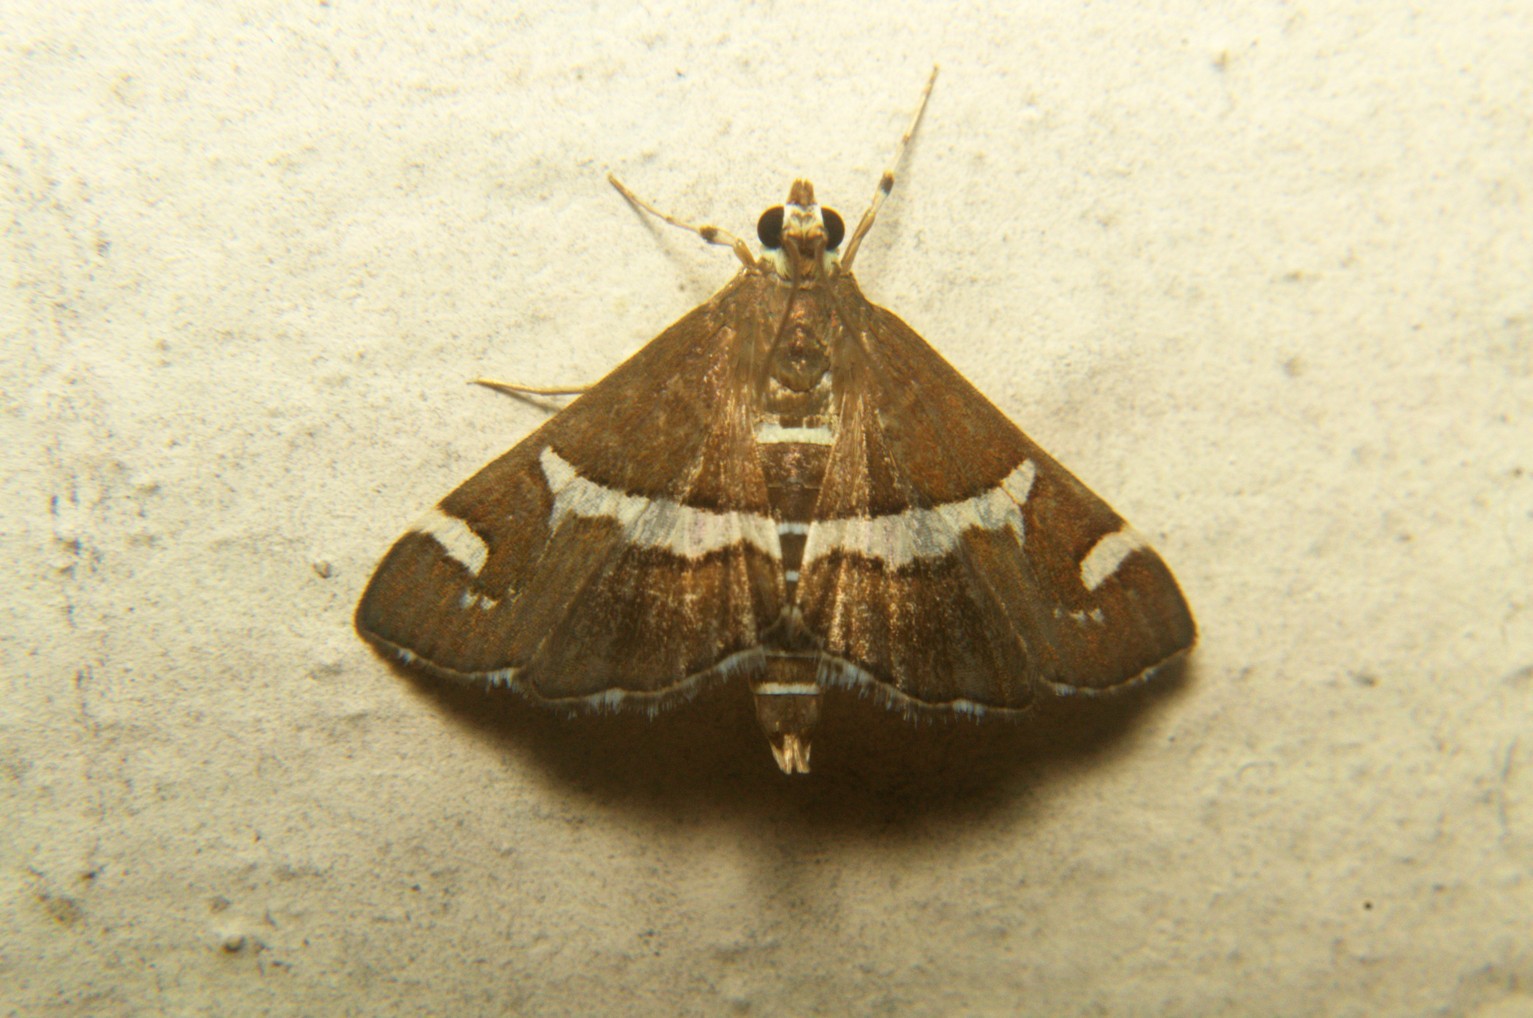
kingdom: Animalia
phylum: Arthropoda
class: Insecta
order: Lepidoptera
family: Crambidae
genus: Spoladea
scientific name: Spoladea recurvalis
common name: Beet webworm moth
